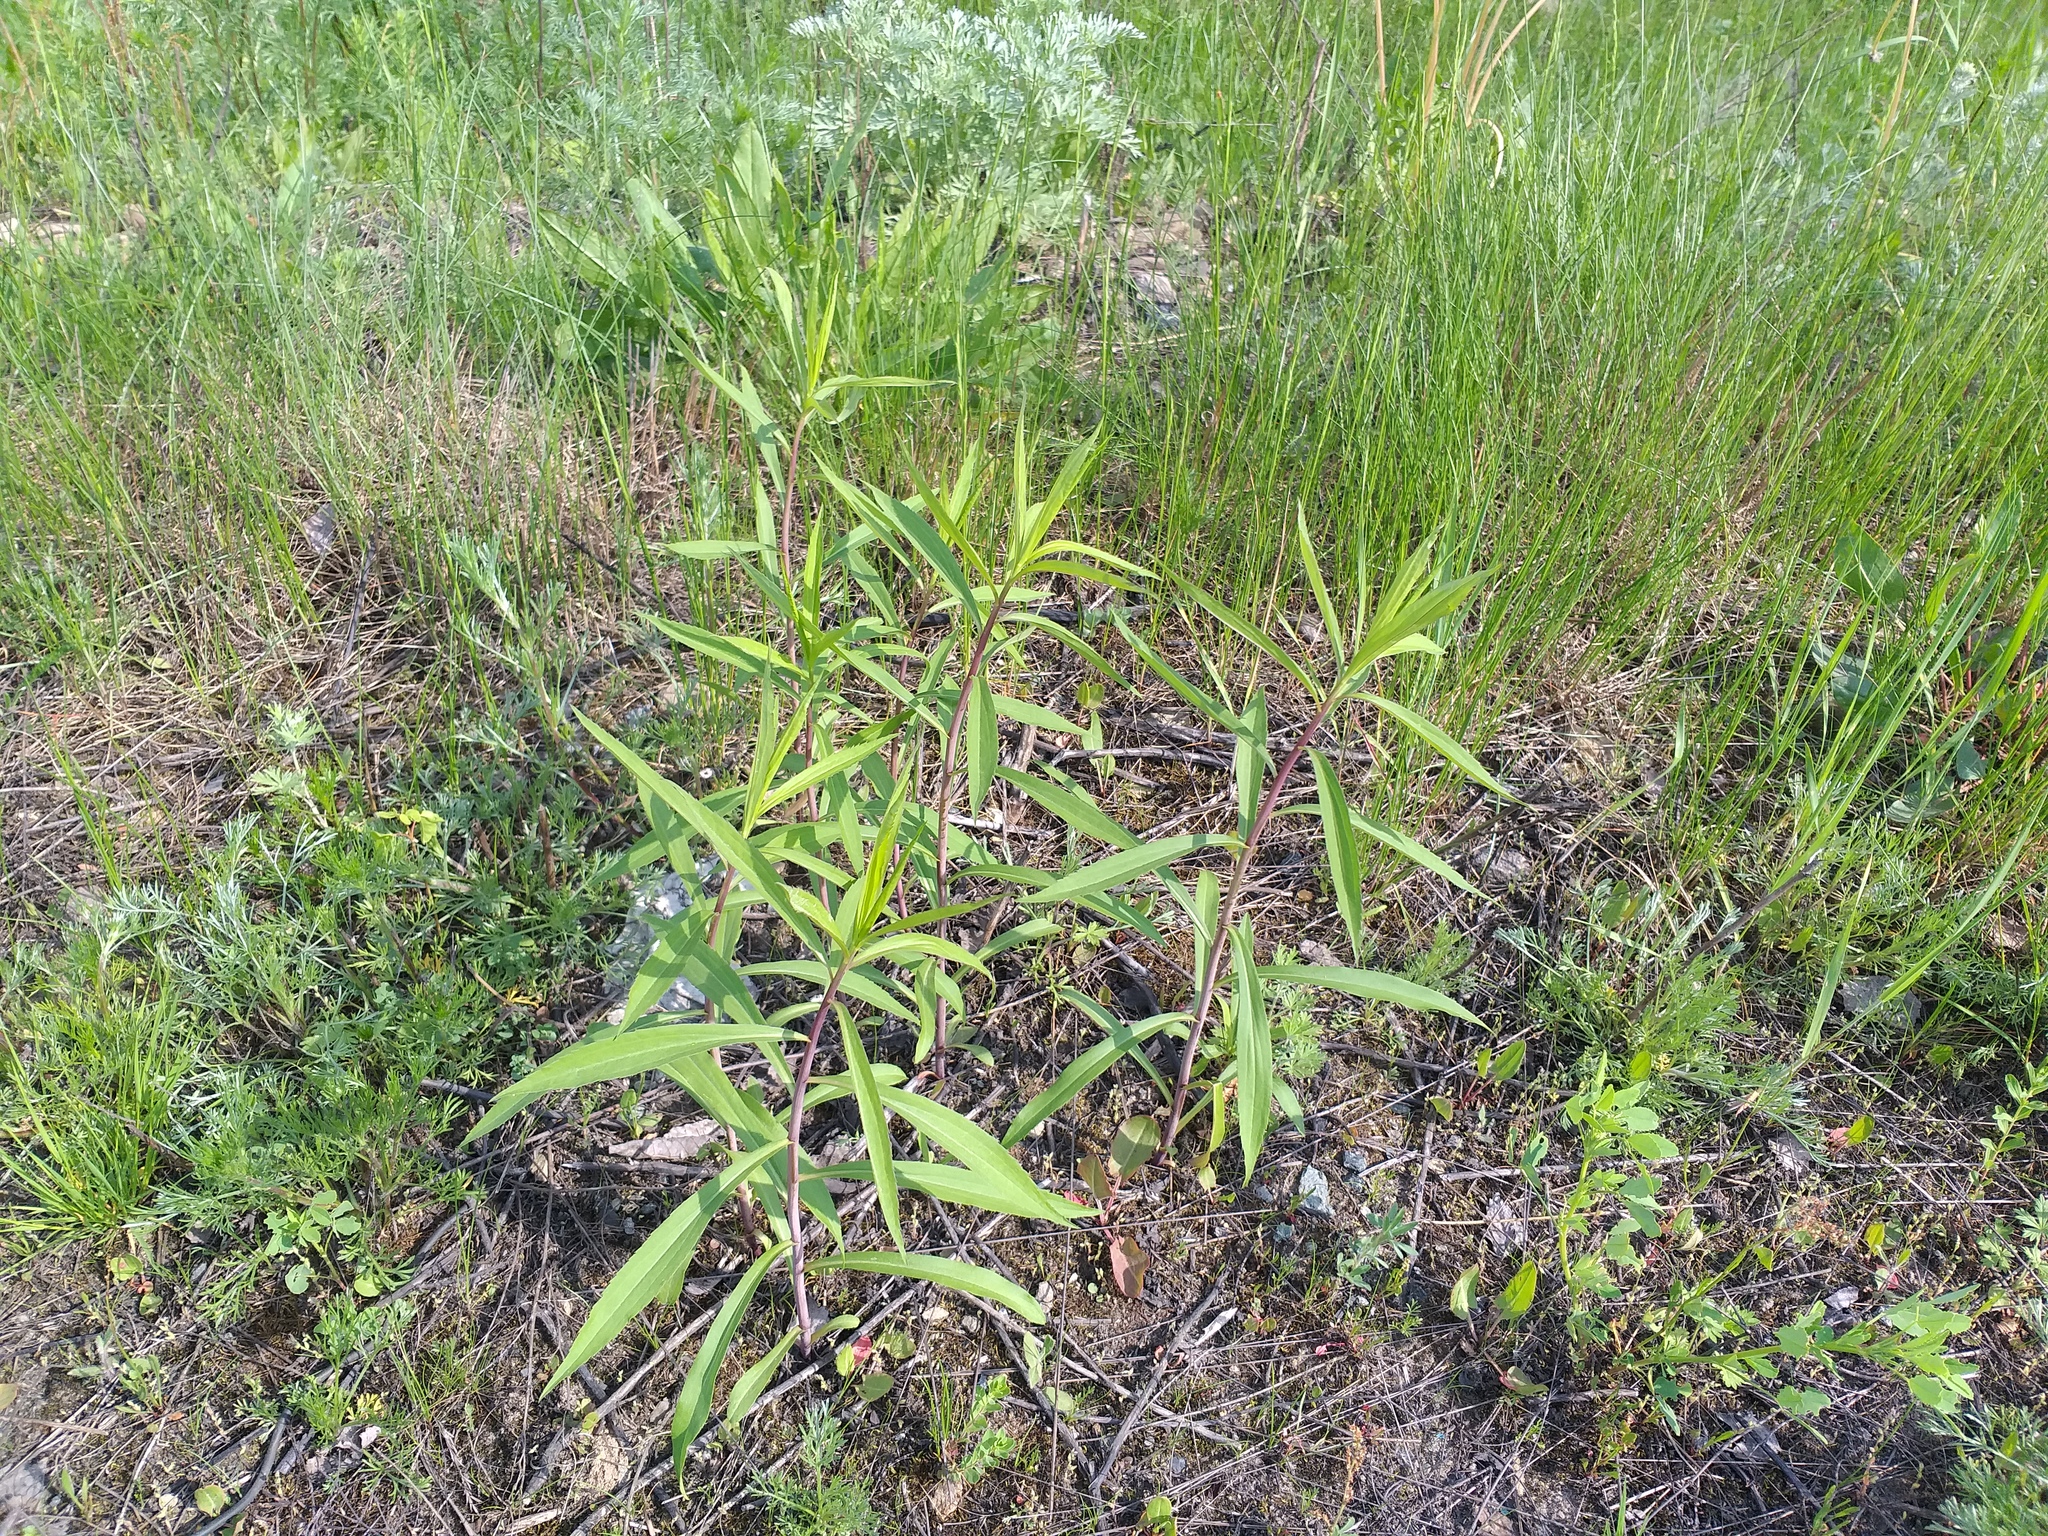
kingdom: Plantae
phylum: Tracheophyta
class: Magnoliopsida
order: Asterales
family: Asteraceae
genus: Solidago
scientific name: Solidago gigantea
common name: Giant goldenrod
